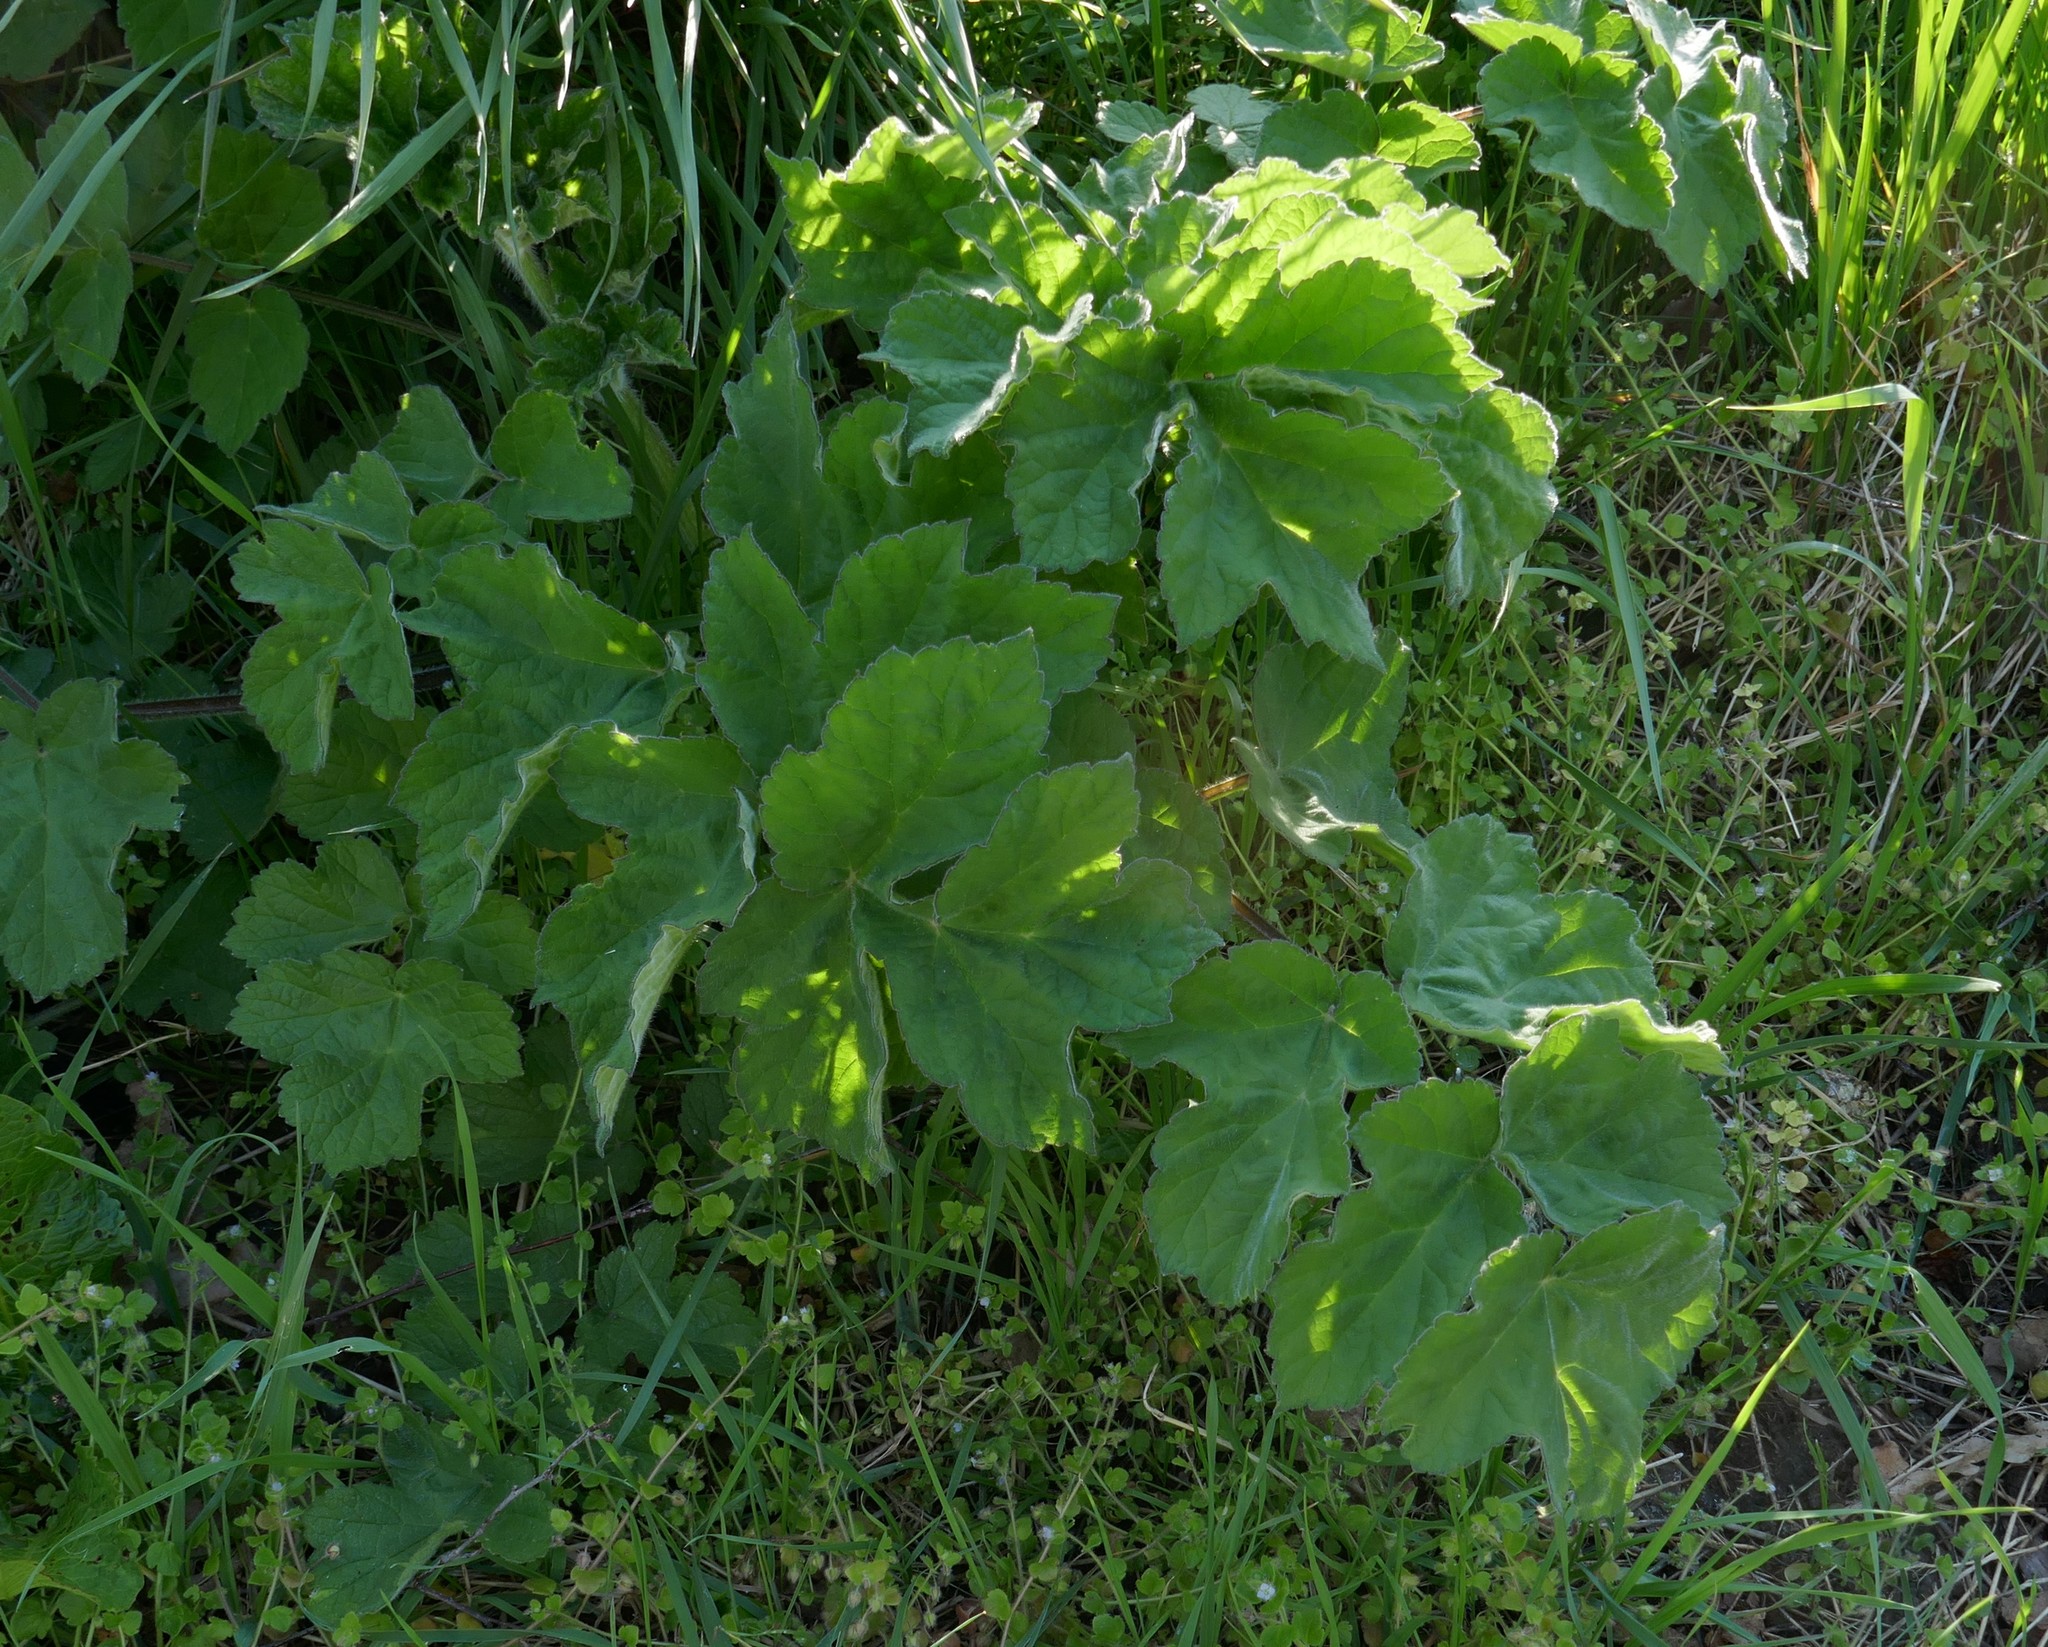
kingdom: Plantae
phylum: Tracheophyta
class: Magnoliopsida
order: Apiales
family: Apiaceae
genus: Heracleum
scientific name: Heracleum sphondylium
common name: Hogweed
